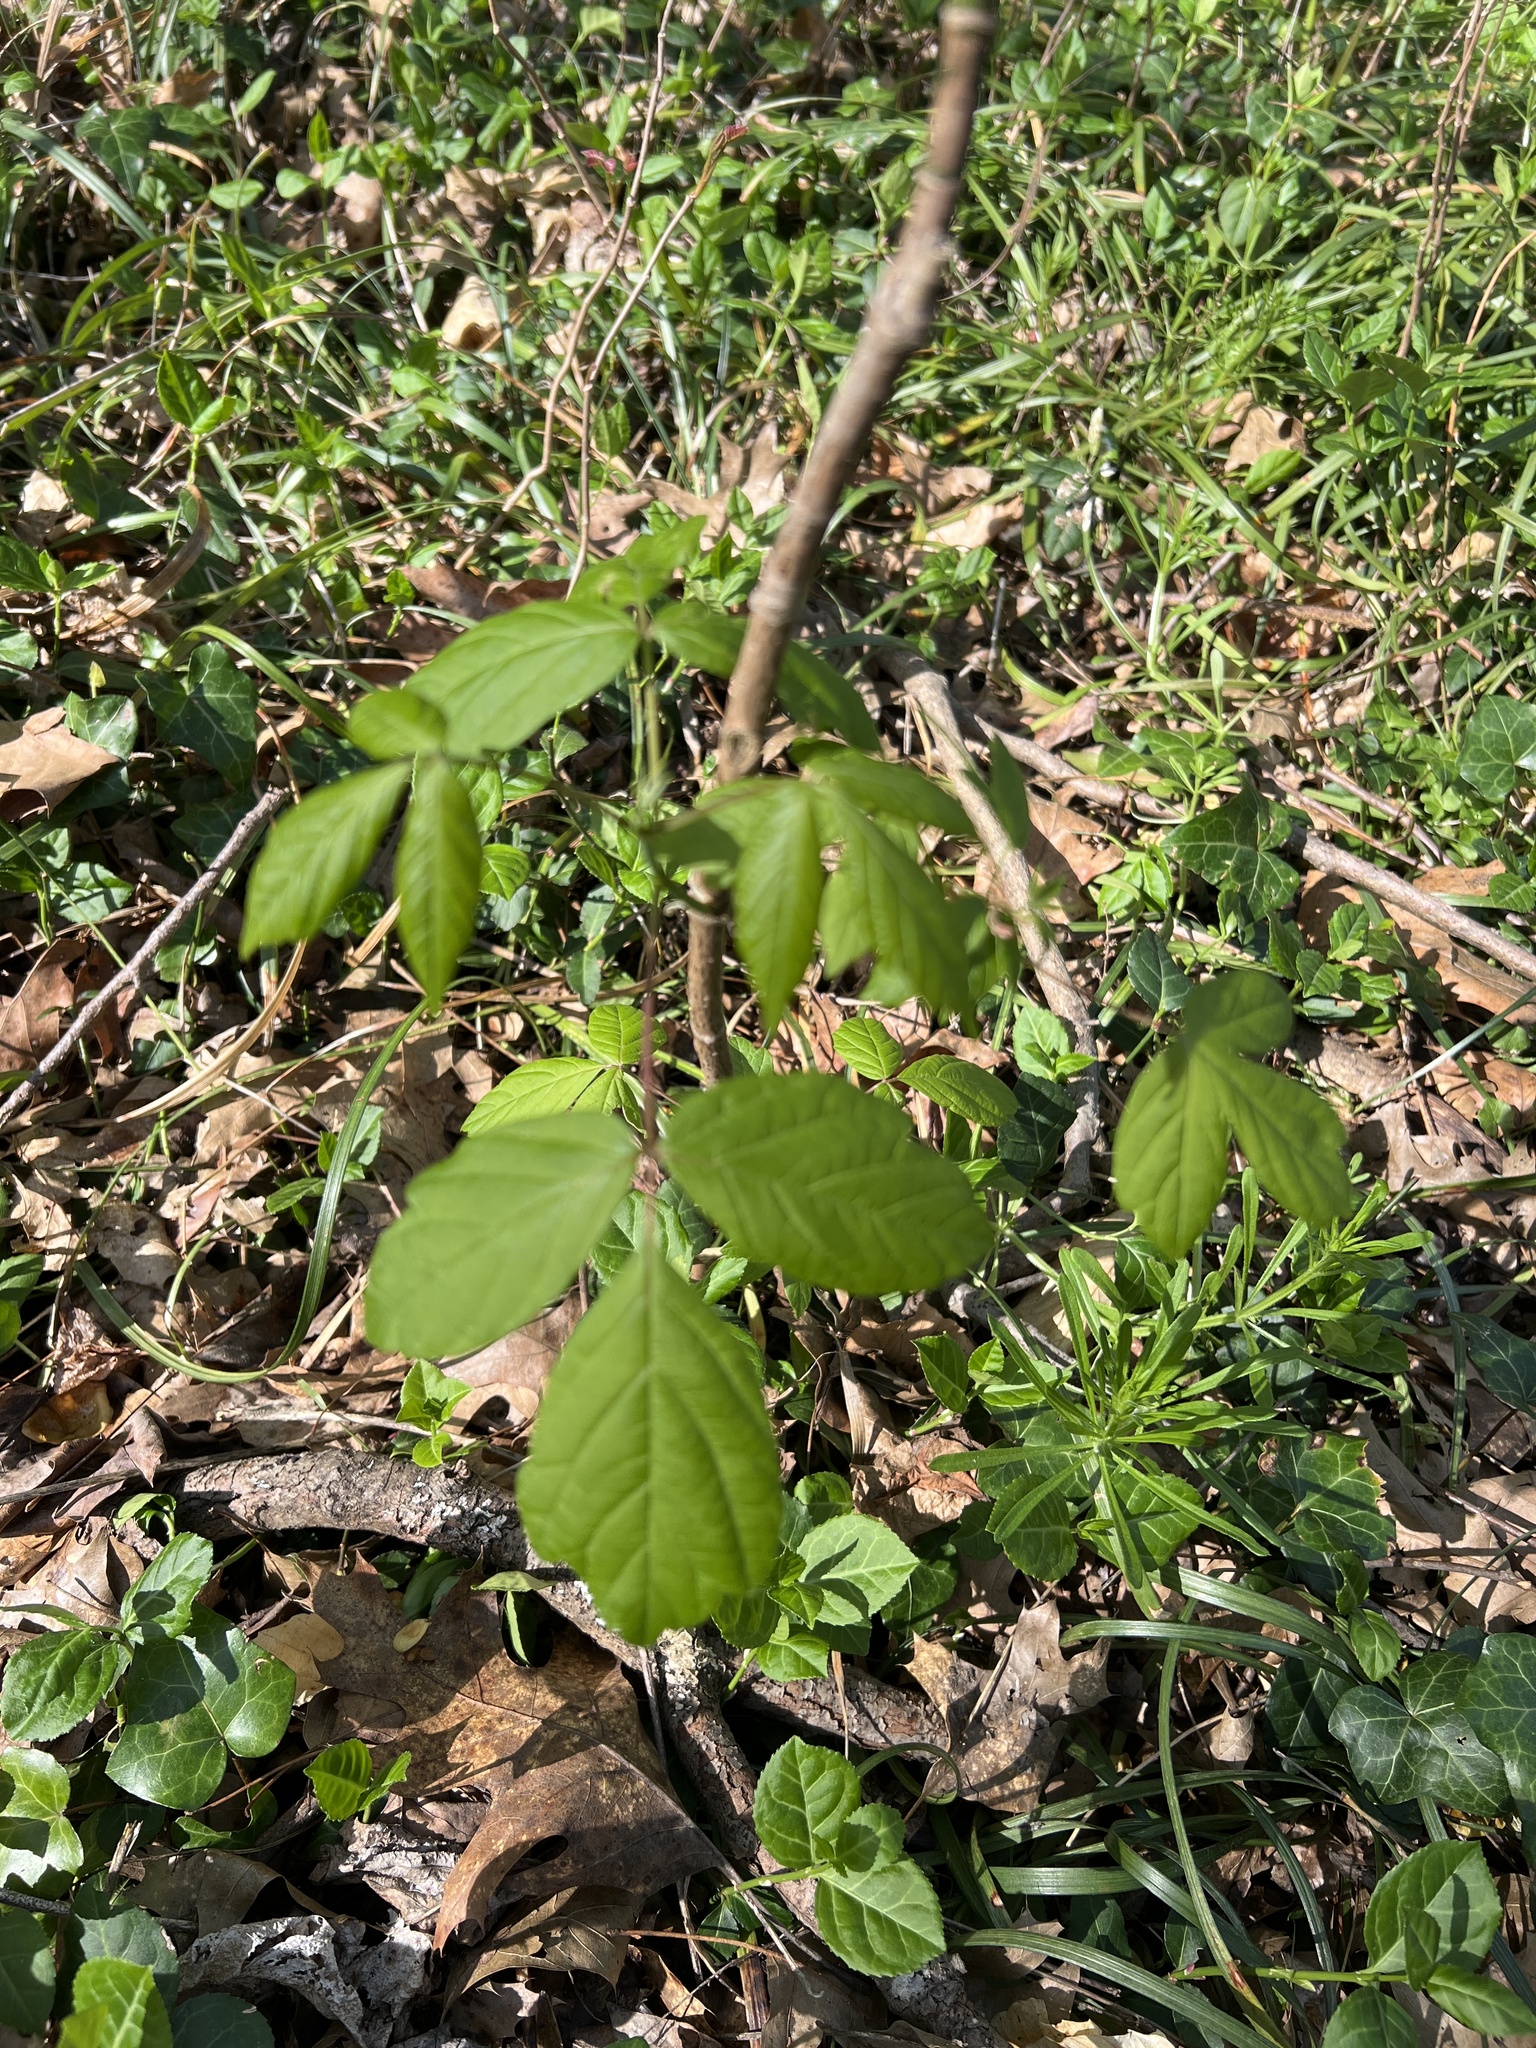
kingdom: Plantae
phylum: Tracheophyta
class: Magnoliopsida
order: Sapindales
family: Sapindaceae
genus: Acer
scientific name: Acer negundo
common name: Ashleaf maple
